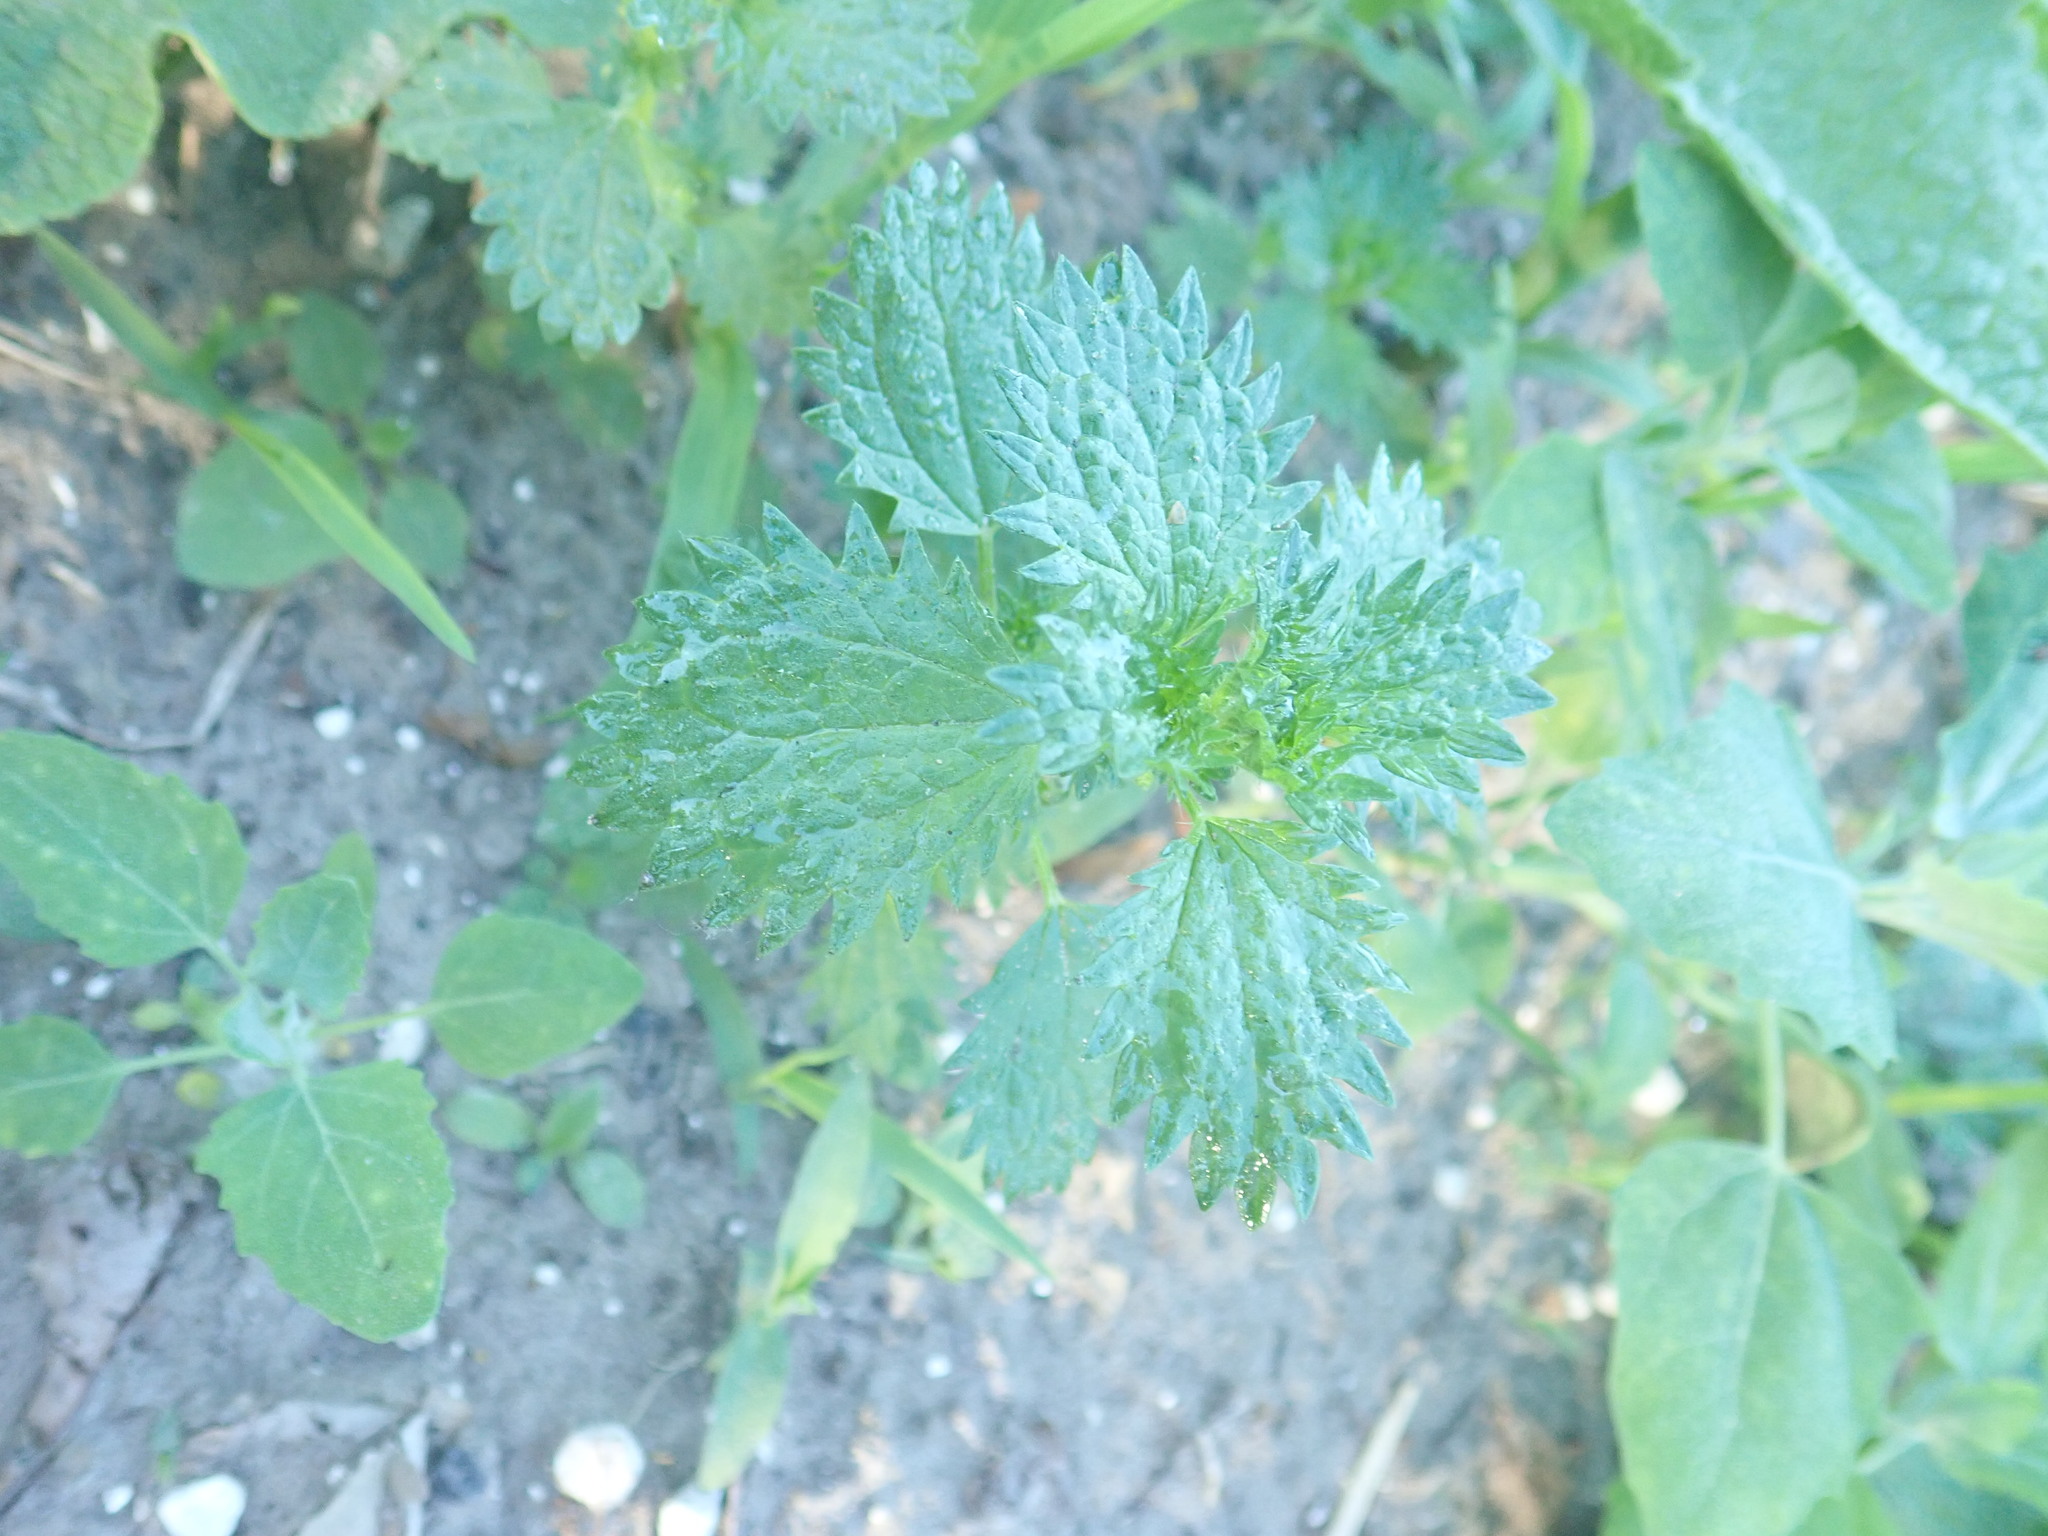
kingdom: Plantae
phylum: Tracheophyta
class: Magnoliopsida
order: Rosales
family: Urticaceae
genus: Urtica
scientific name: Urtica urens
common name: Dwarf nettle
